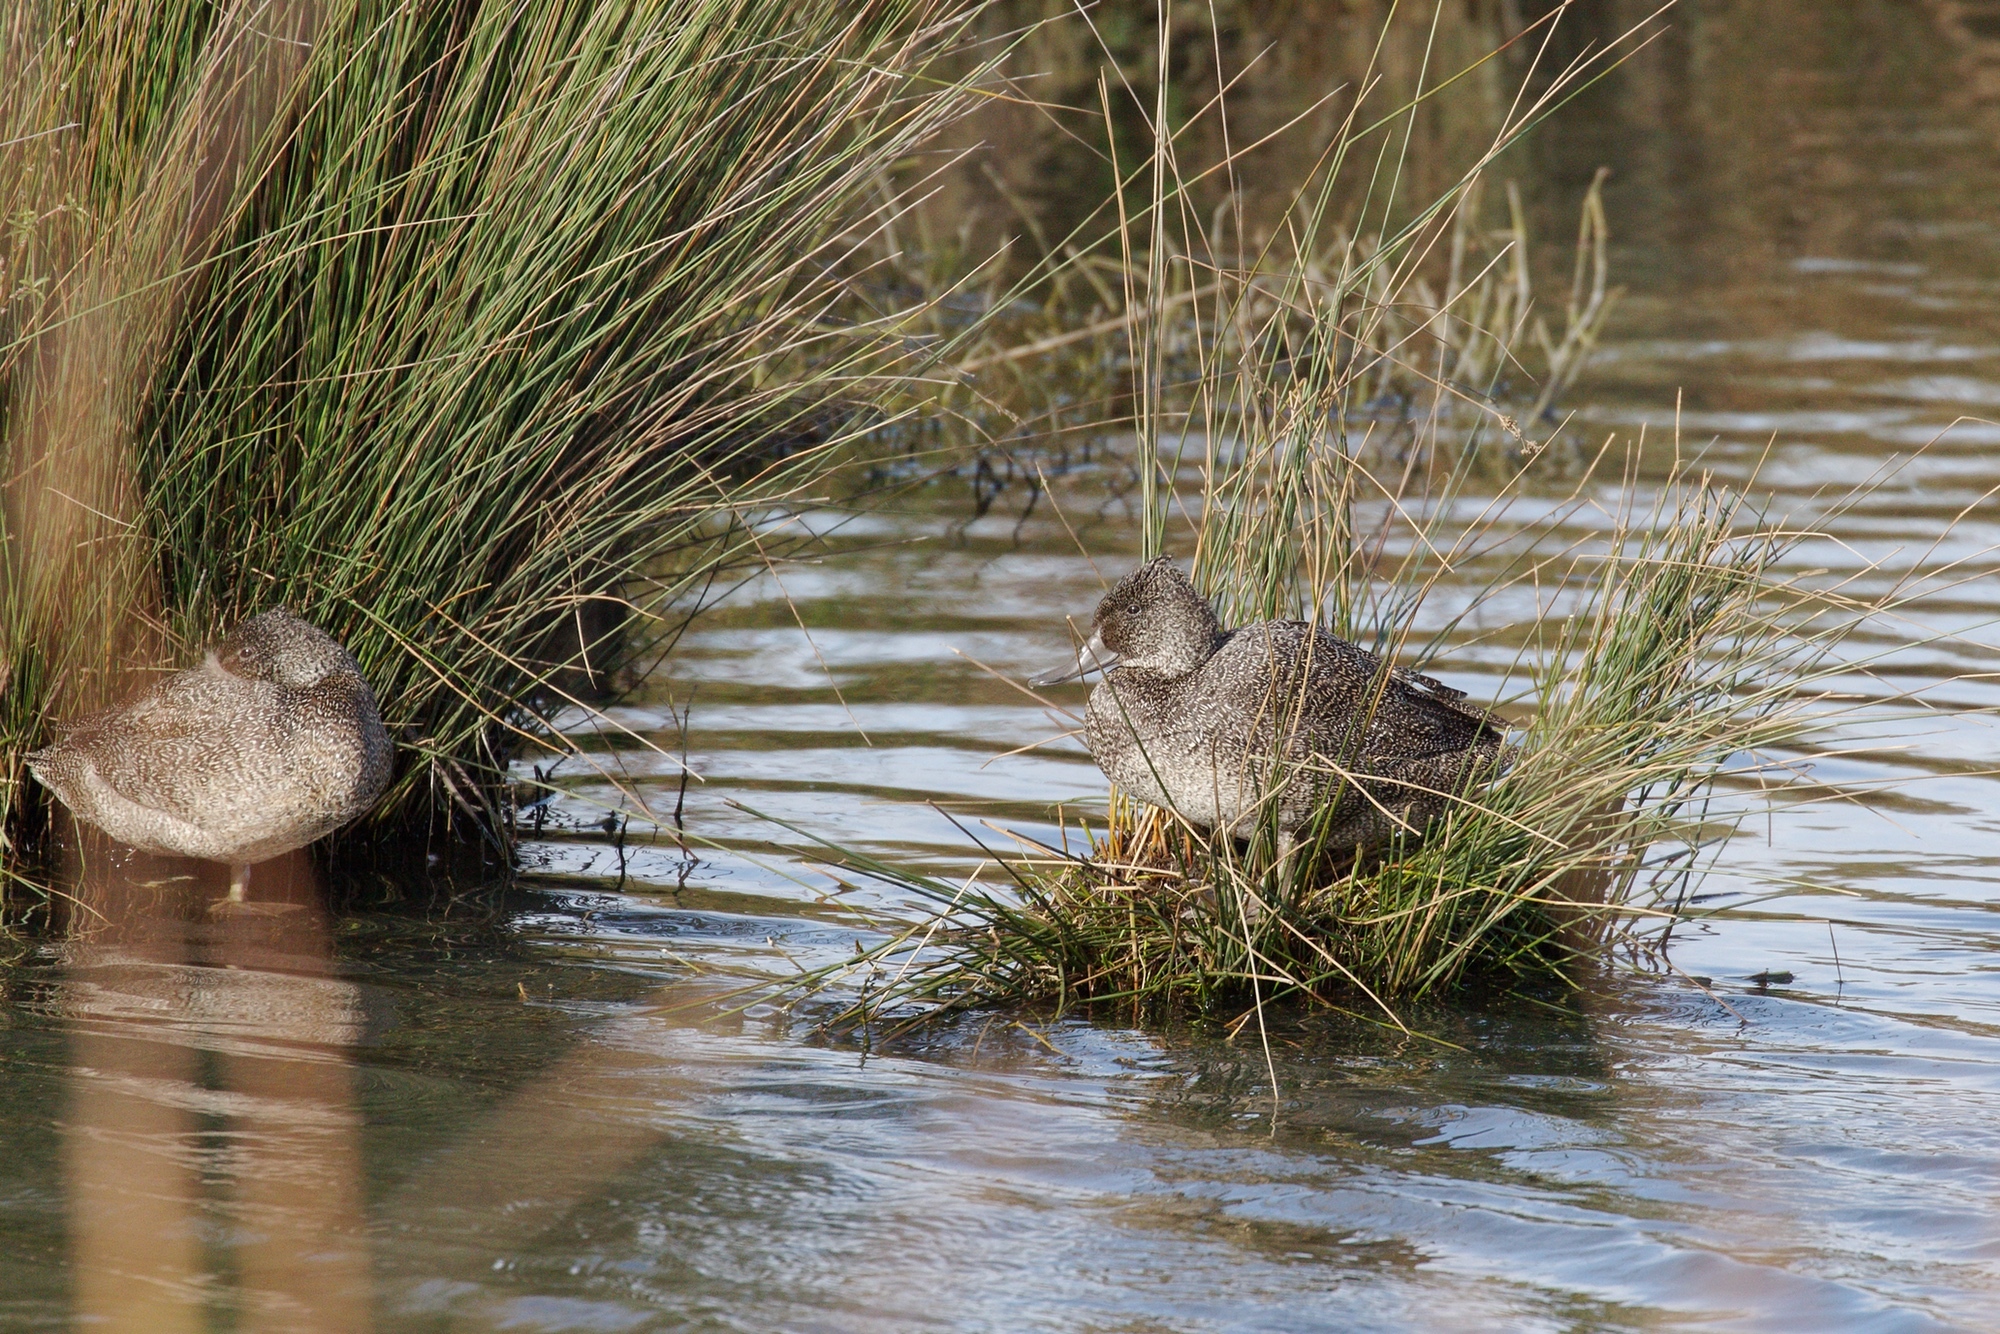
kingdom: Animalia
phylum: Chordata
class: Aves
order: Anseriformes
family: Anatidae
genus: Stictonetta
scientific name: Stictonetta naevosa
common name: Freckled duck
